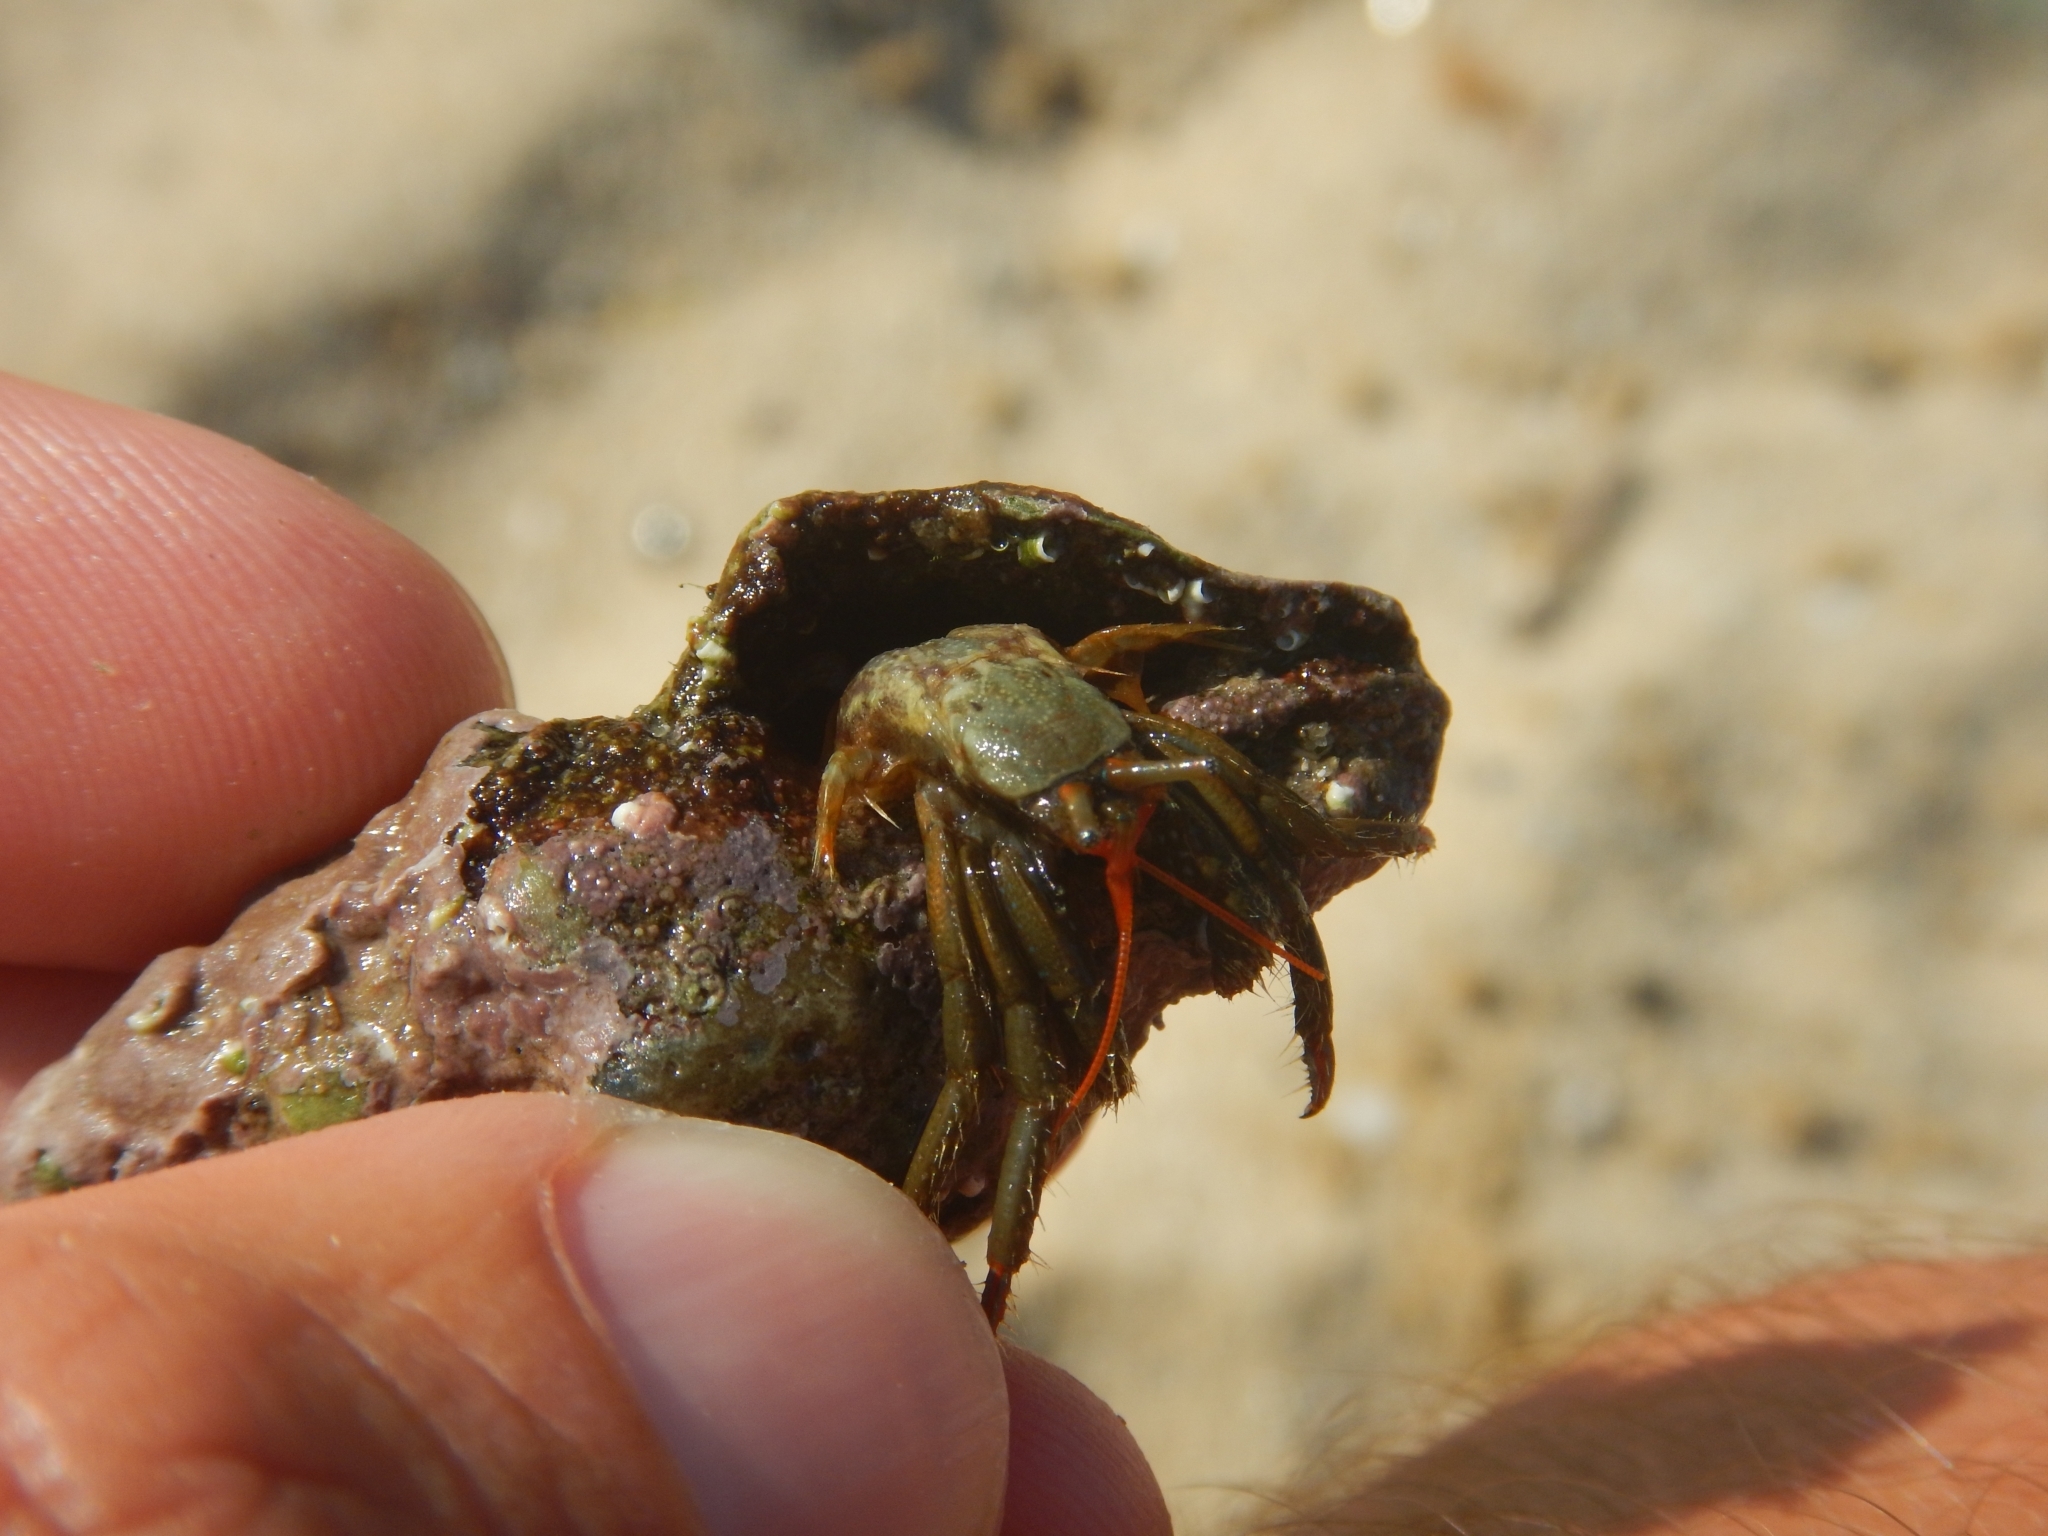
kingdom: Animalia
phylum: Arthropoda
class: Malacostraca
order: Decapoda
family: Diogenidae
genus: Clibanarius
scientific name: Clibanarius erythropus
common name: Hermit crab
